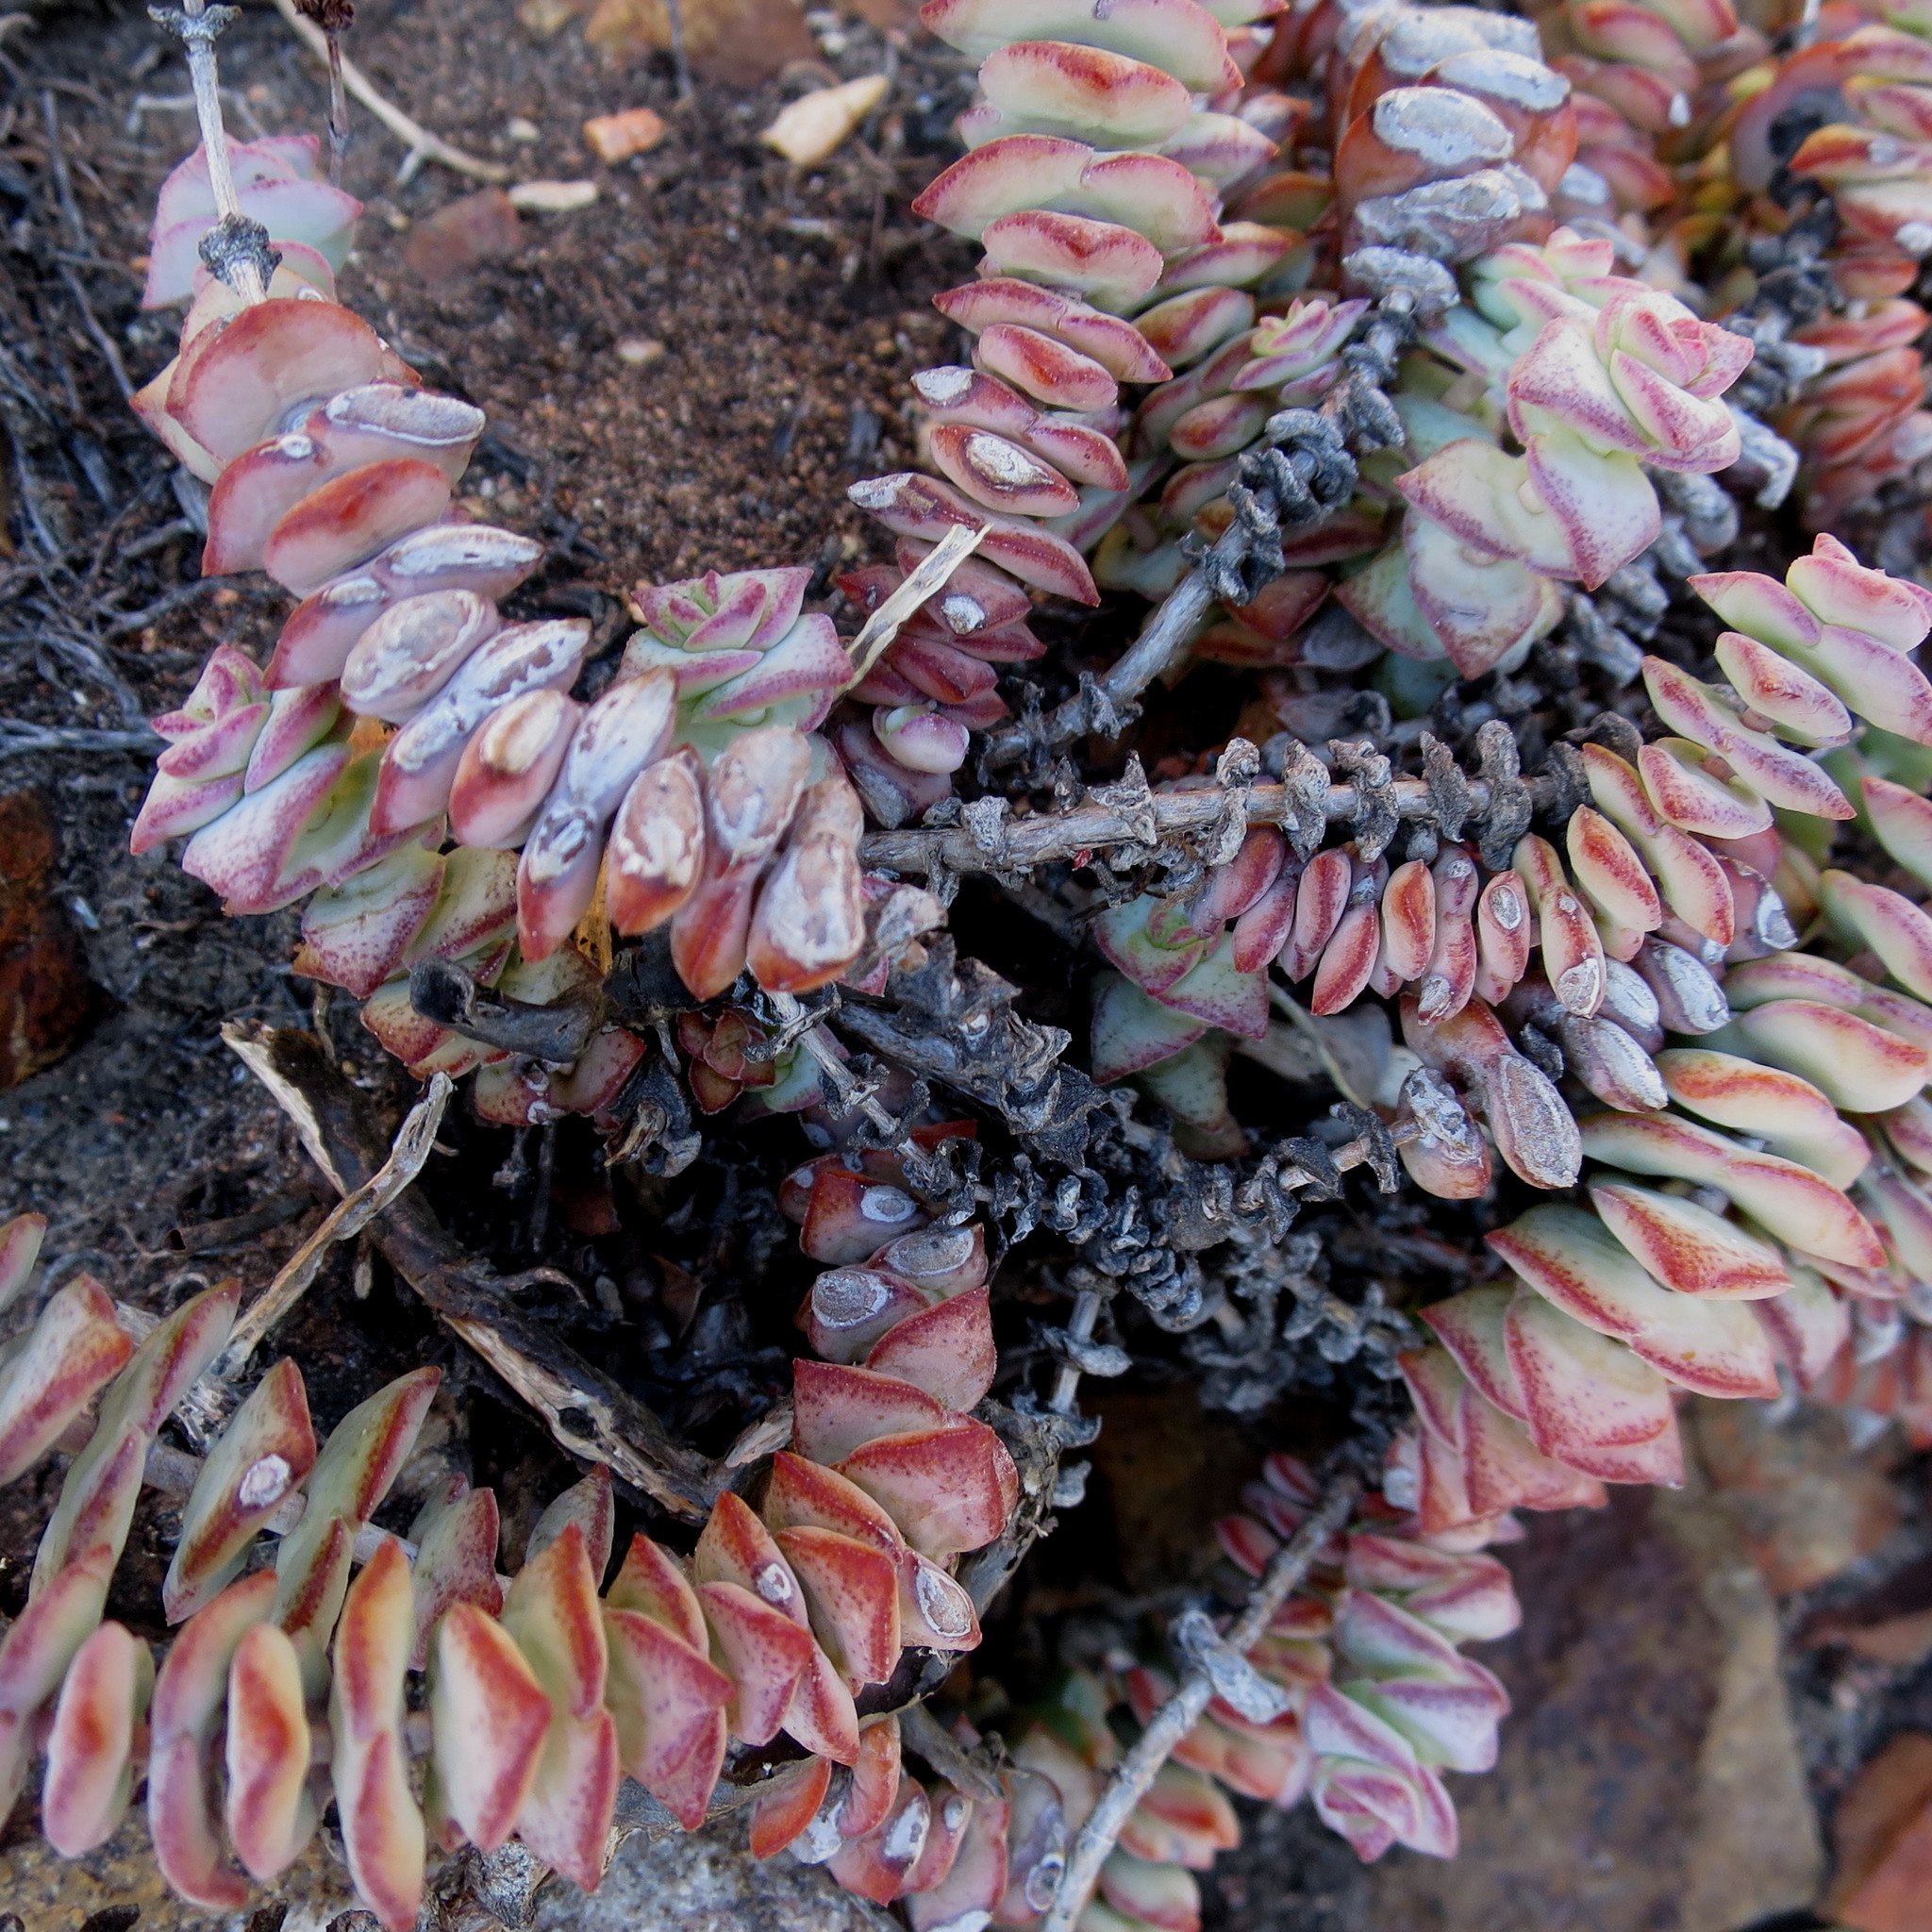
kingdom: Plantae
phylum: Tracheophyta
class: Magnoliopsida
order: Saxifragales
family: Crassulaceae
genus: Crassula
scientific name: Crassula perforata
